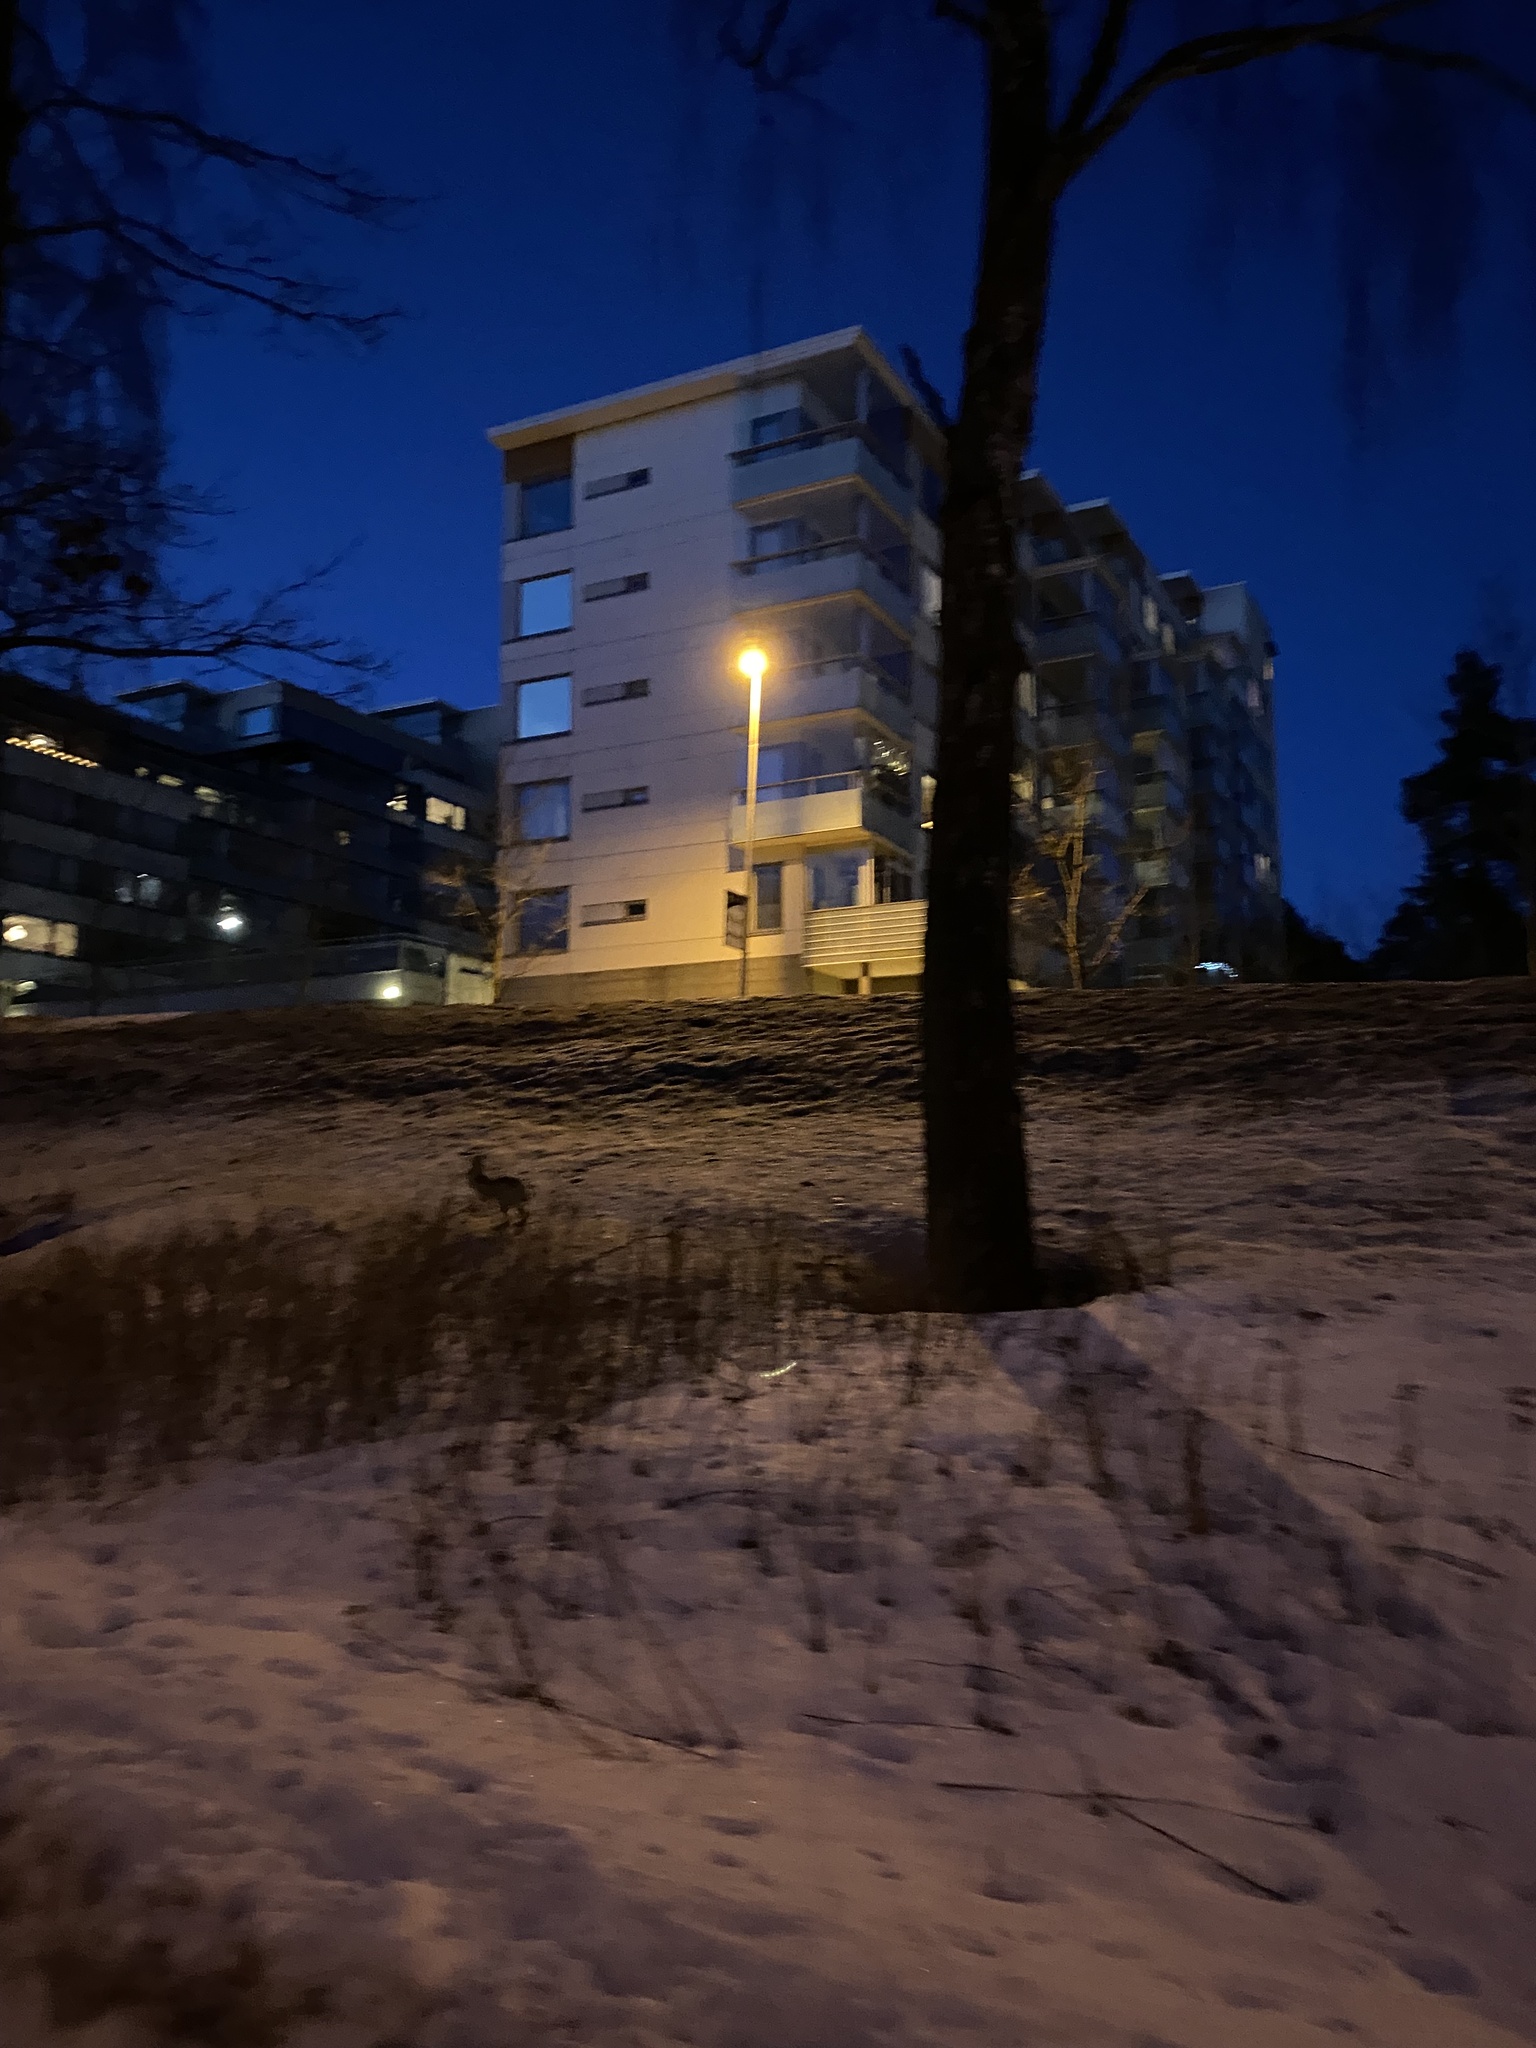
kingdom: Animalia
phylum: Chordata
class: Mammalia
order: Lagomorpha
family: Leporidae
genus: Lepus
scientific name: Lepus europaeus
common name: European hare
